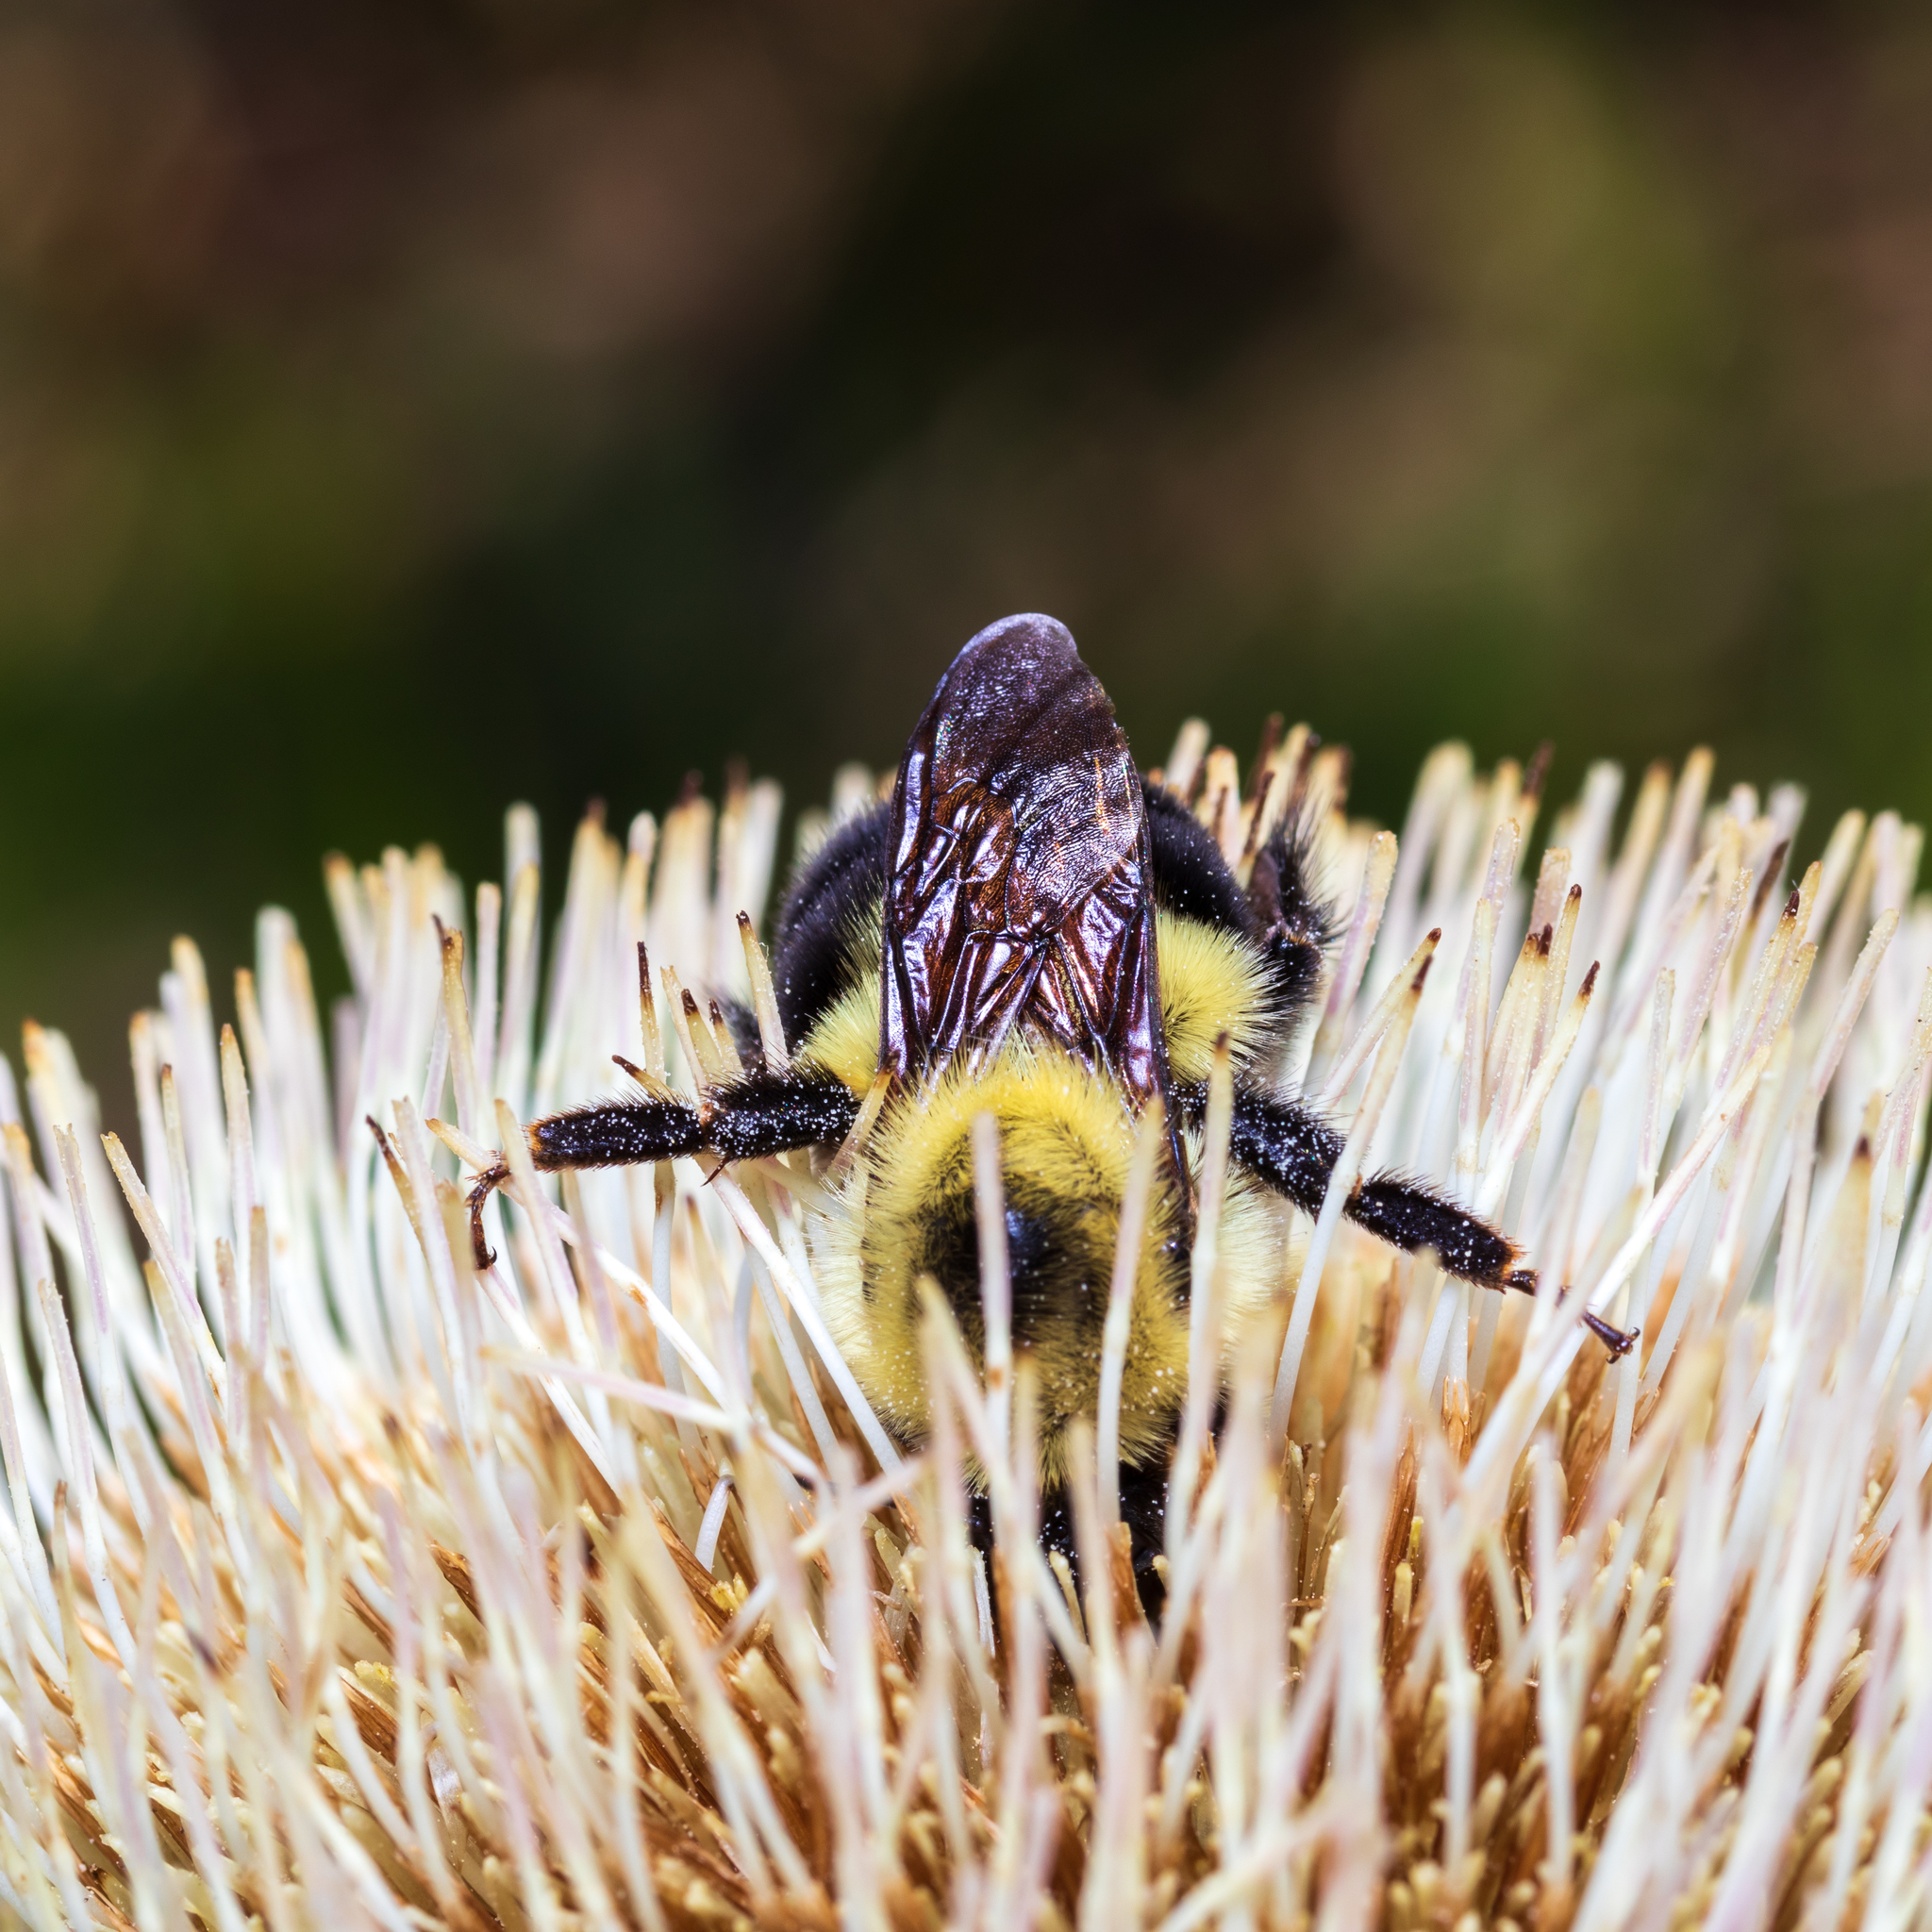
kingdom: Animalia
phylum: Arthropoda
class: Insecta
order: Hymenoptera
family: Apidae
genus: Bombus
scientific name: Bombus bimaculatus
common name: Two-spotted bumble bee
